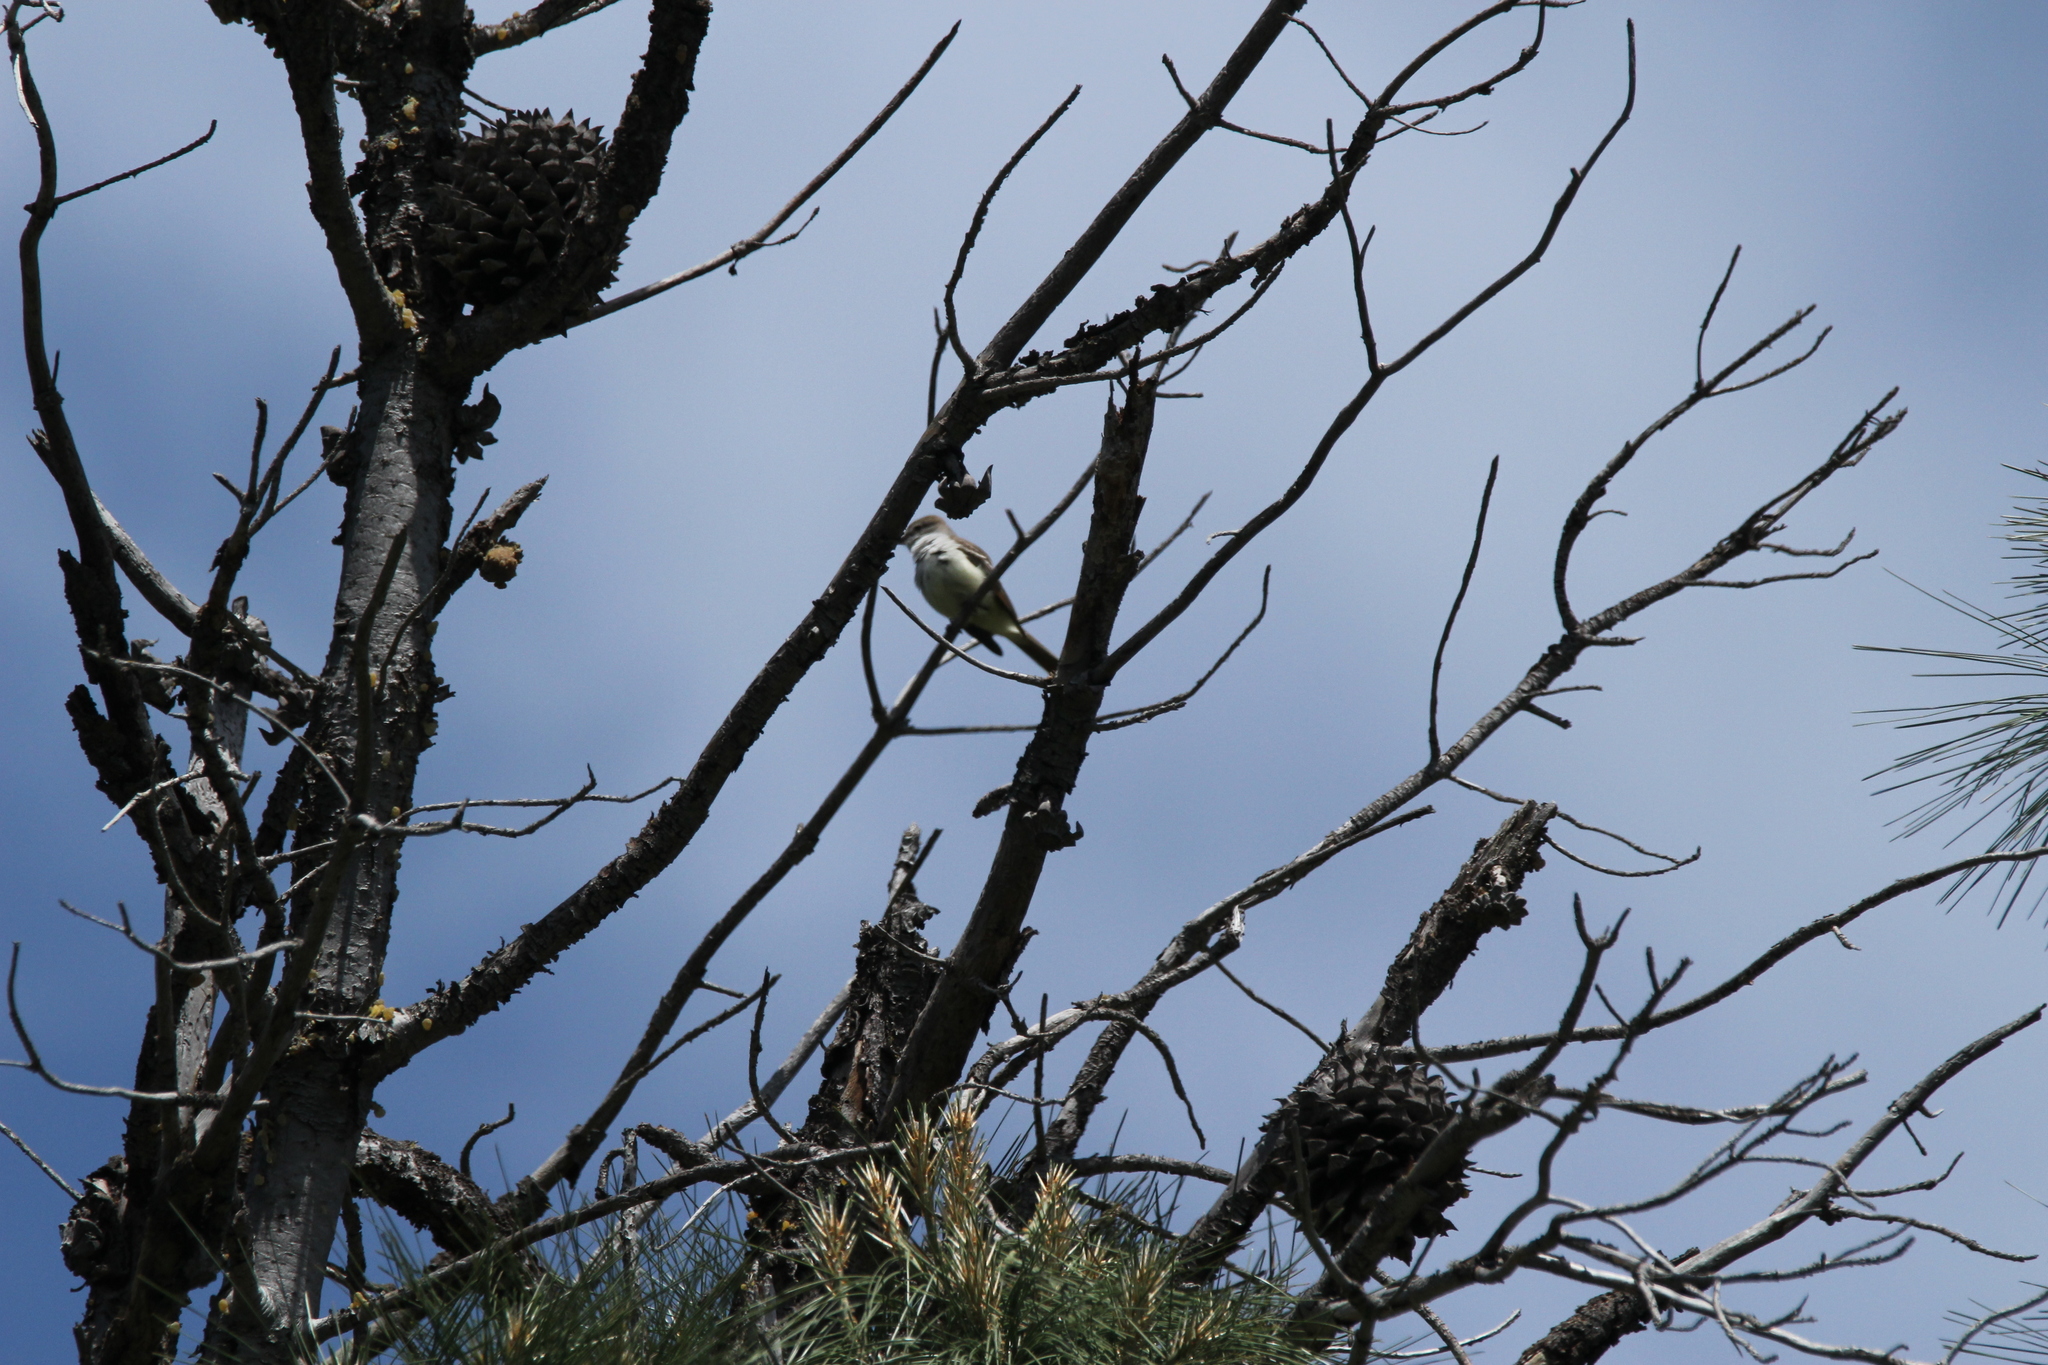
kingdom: Animalia
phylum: Chordata
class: Aves
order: Passeriformes
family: Tyrannidae
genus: Myiarchus
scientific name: Myiarchus cinerascens
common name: Ash-throated flycatcher
